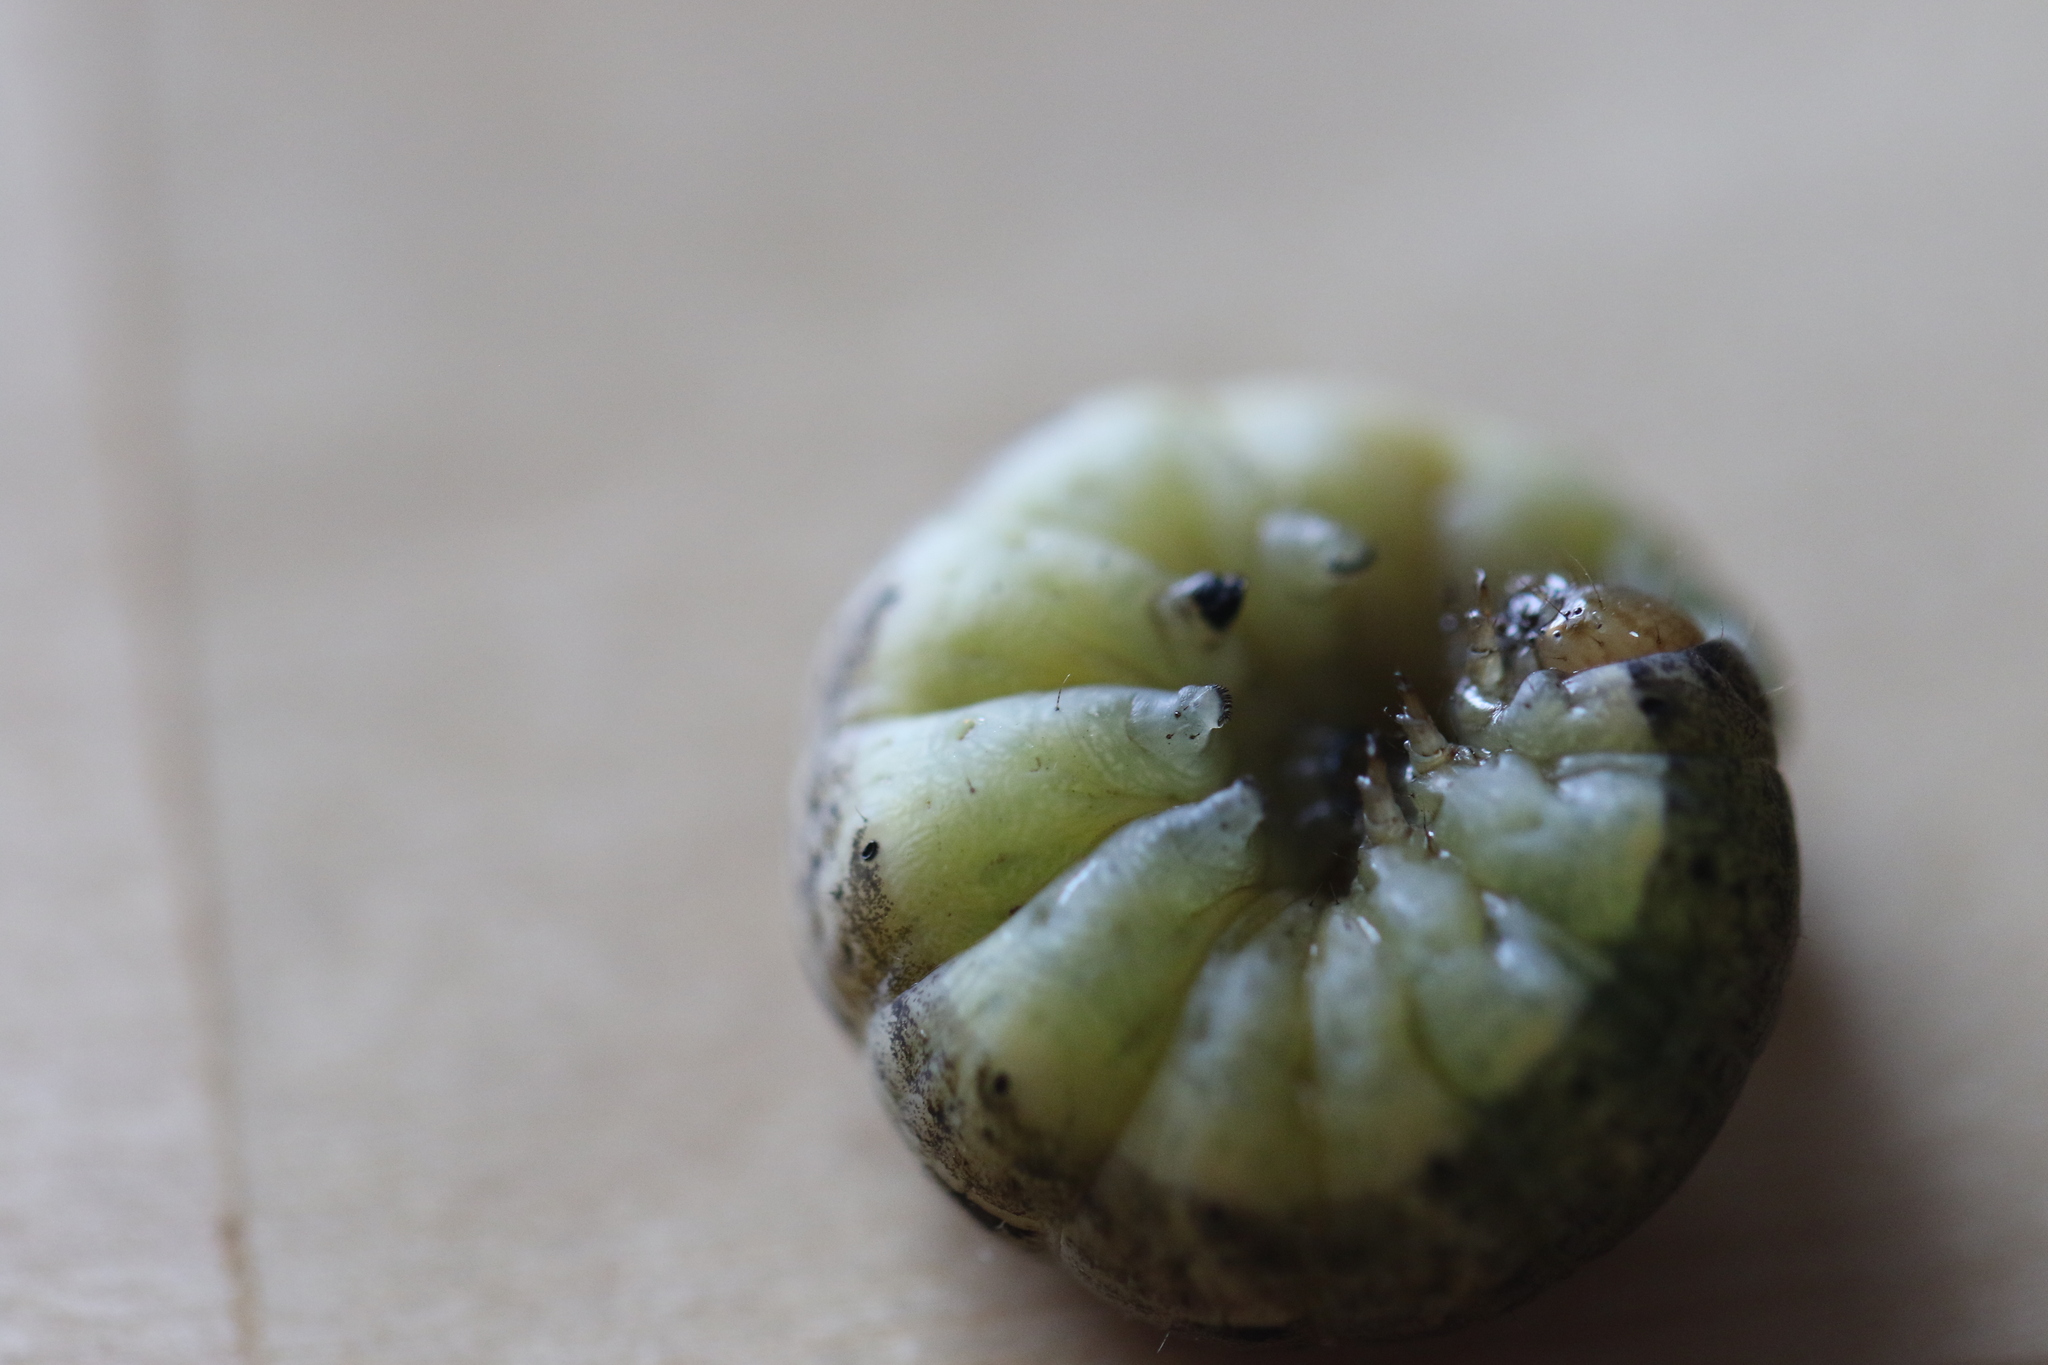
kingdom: Animalia
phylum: Arthropoda
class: Insecta
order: Lepidoptera
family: Noctuidae
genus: Noctua
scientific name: Noctua pronuba
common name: Large yellow underwing
